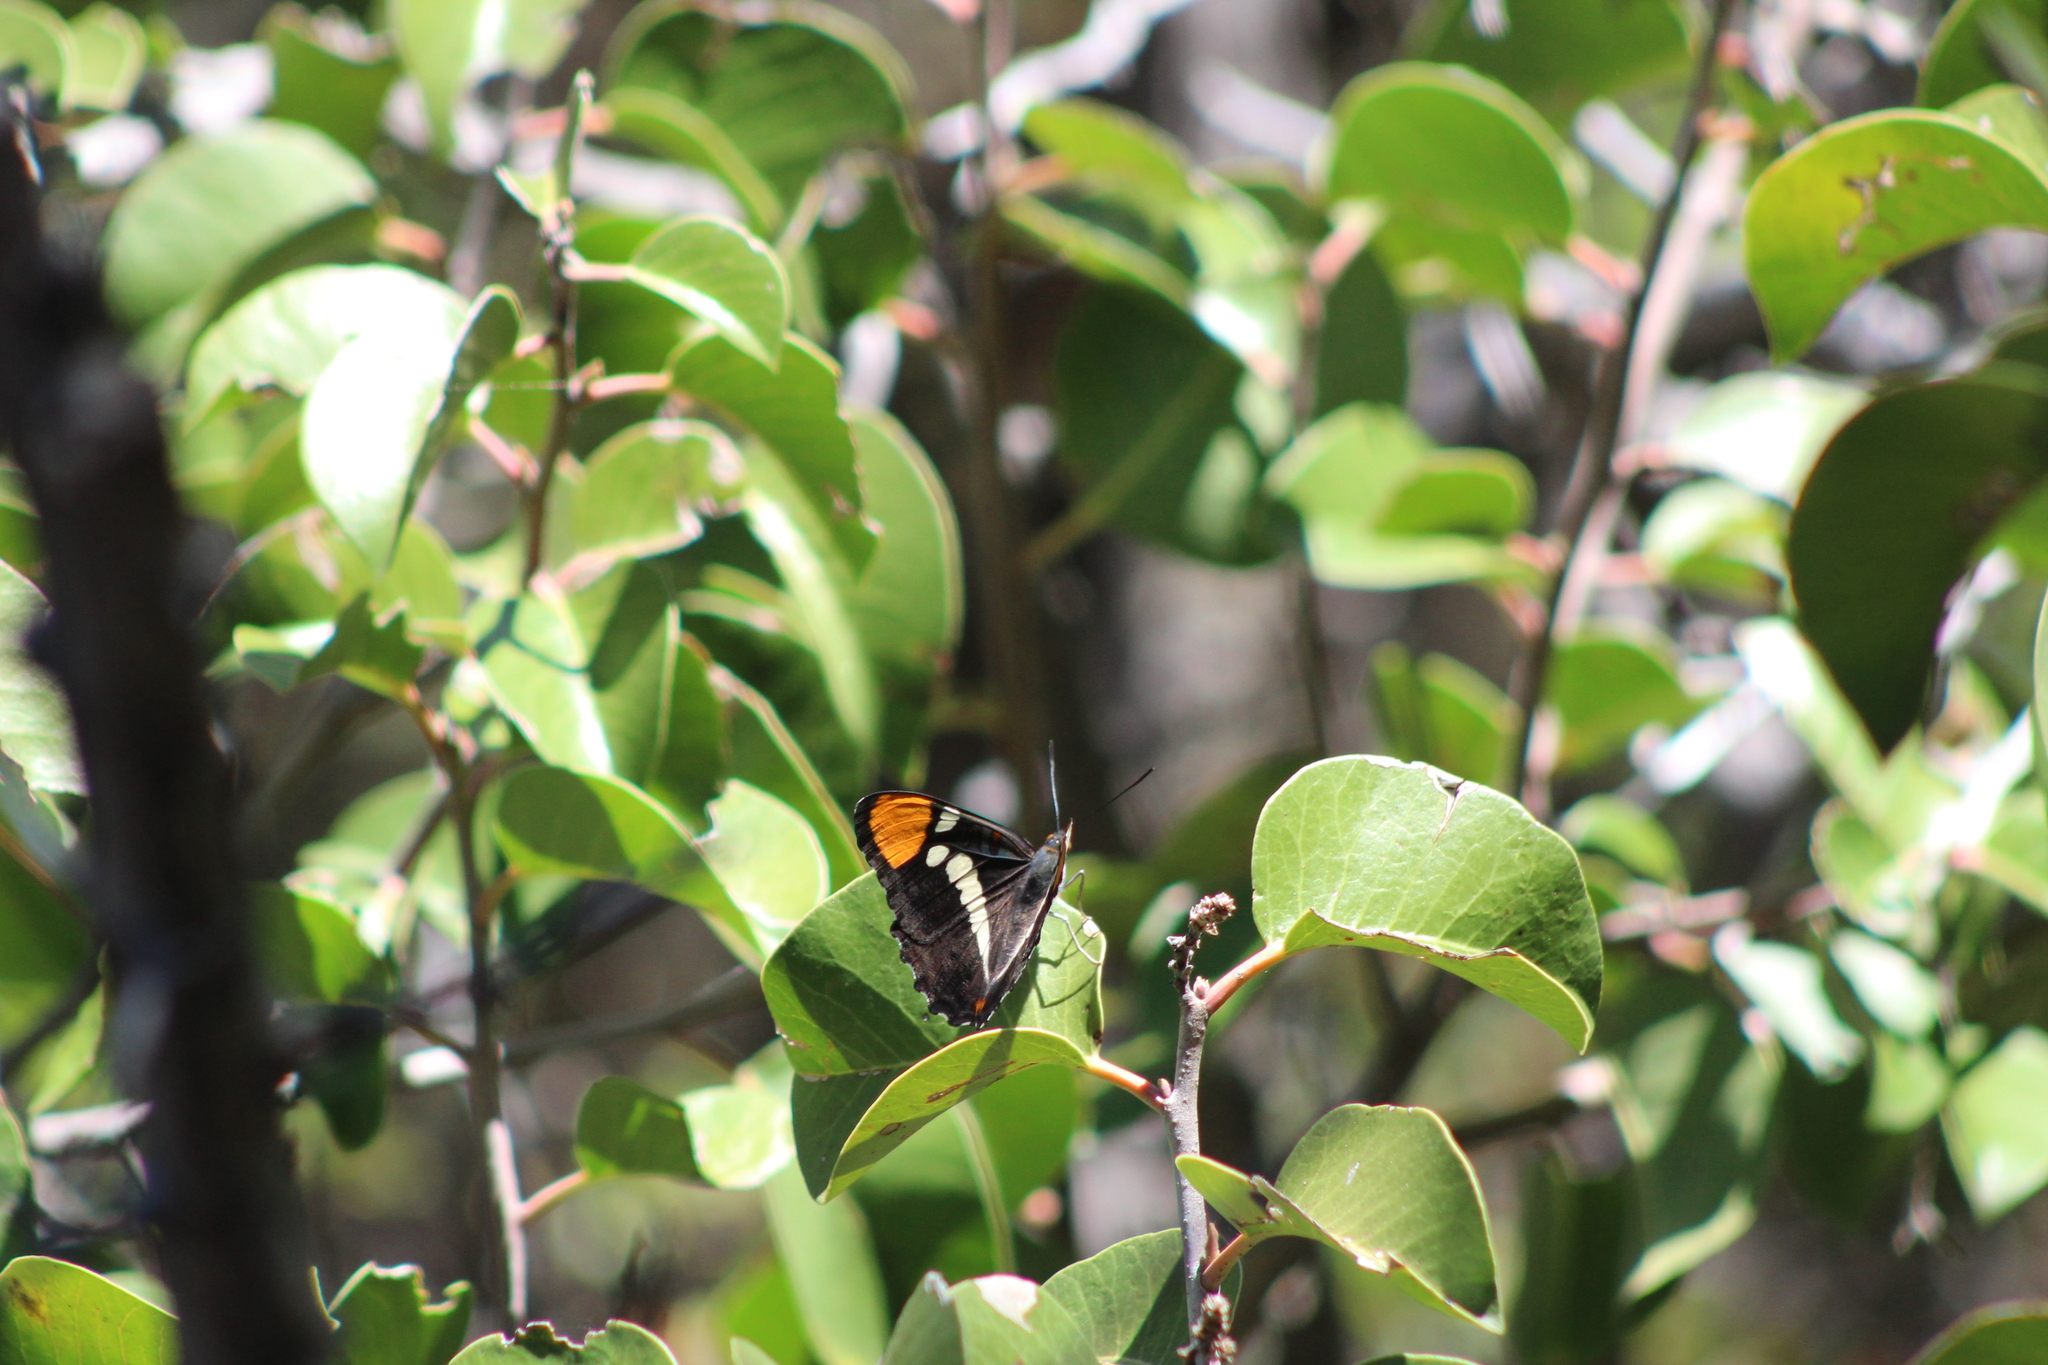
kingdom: Animalia
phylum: Arthropoda
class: Insecta
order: Lepidoptera
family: Nymphalidae
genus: Limenitis
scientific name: Limenitis bredowii
